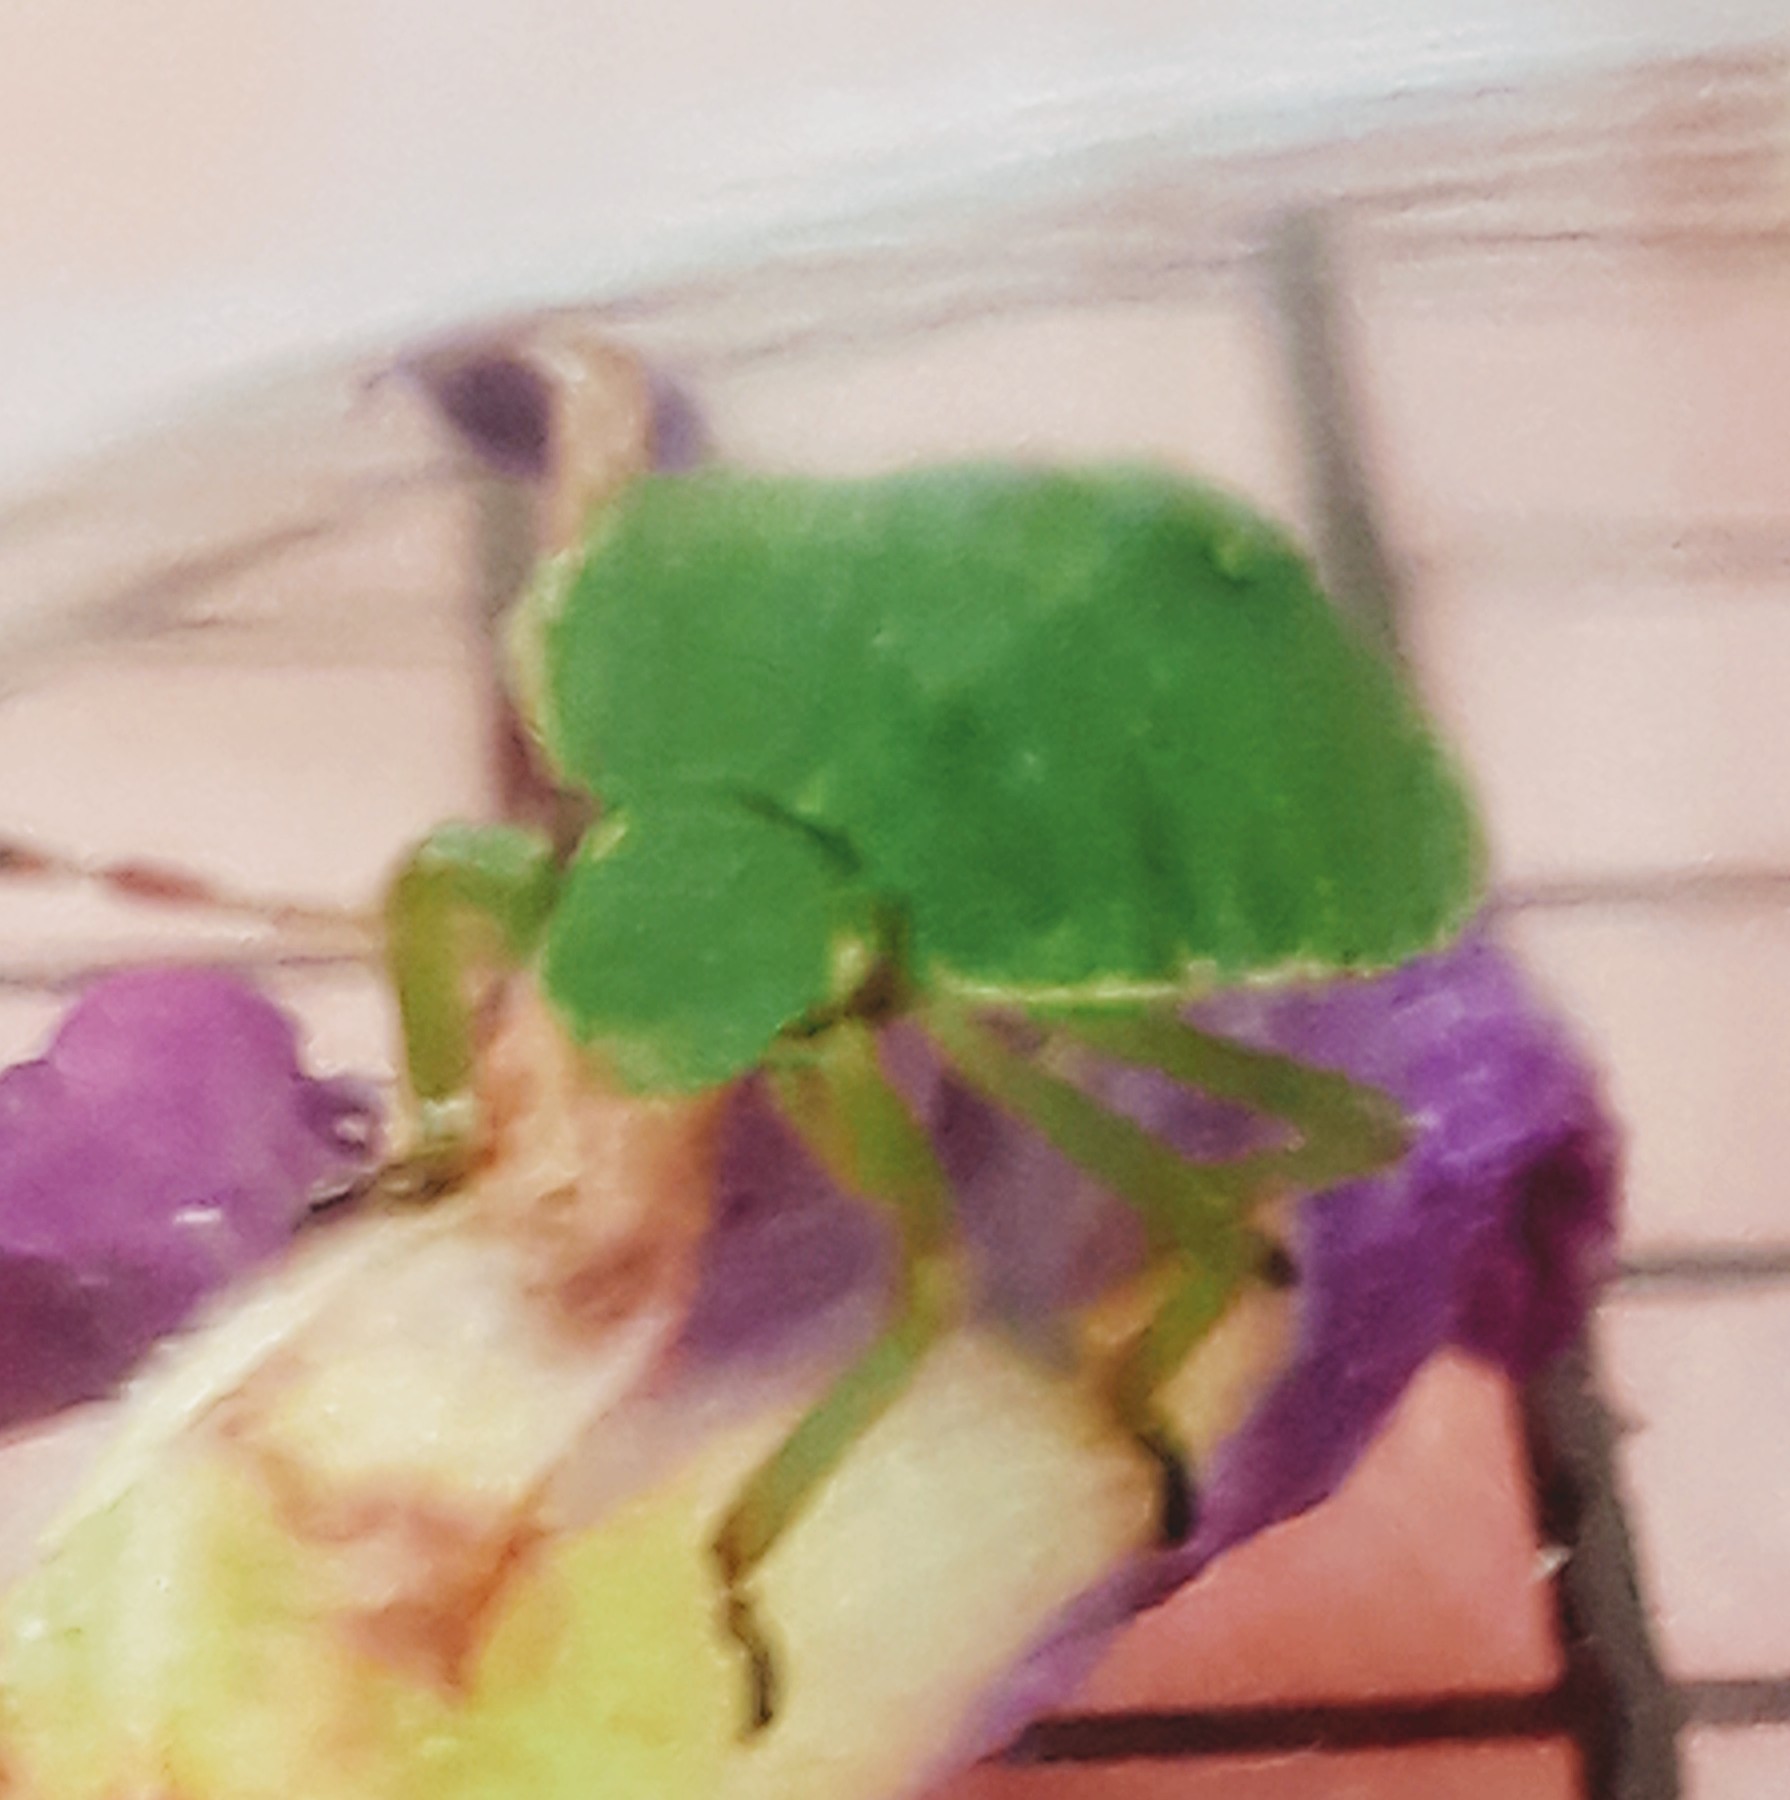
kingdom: Animalia
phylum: Arthropoda
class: Insecta
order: Hemiptera
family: Pentatomidae
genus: Palomena
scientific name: Palomena prasina
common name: Green shieldbug
